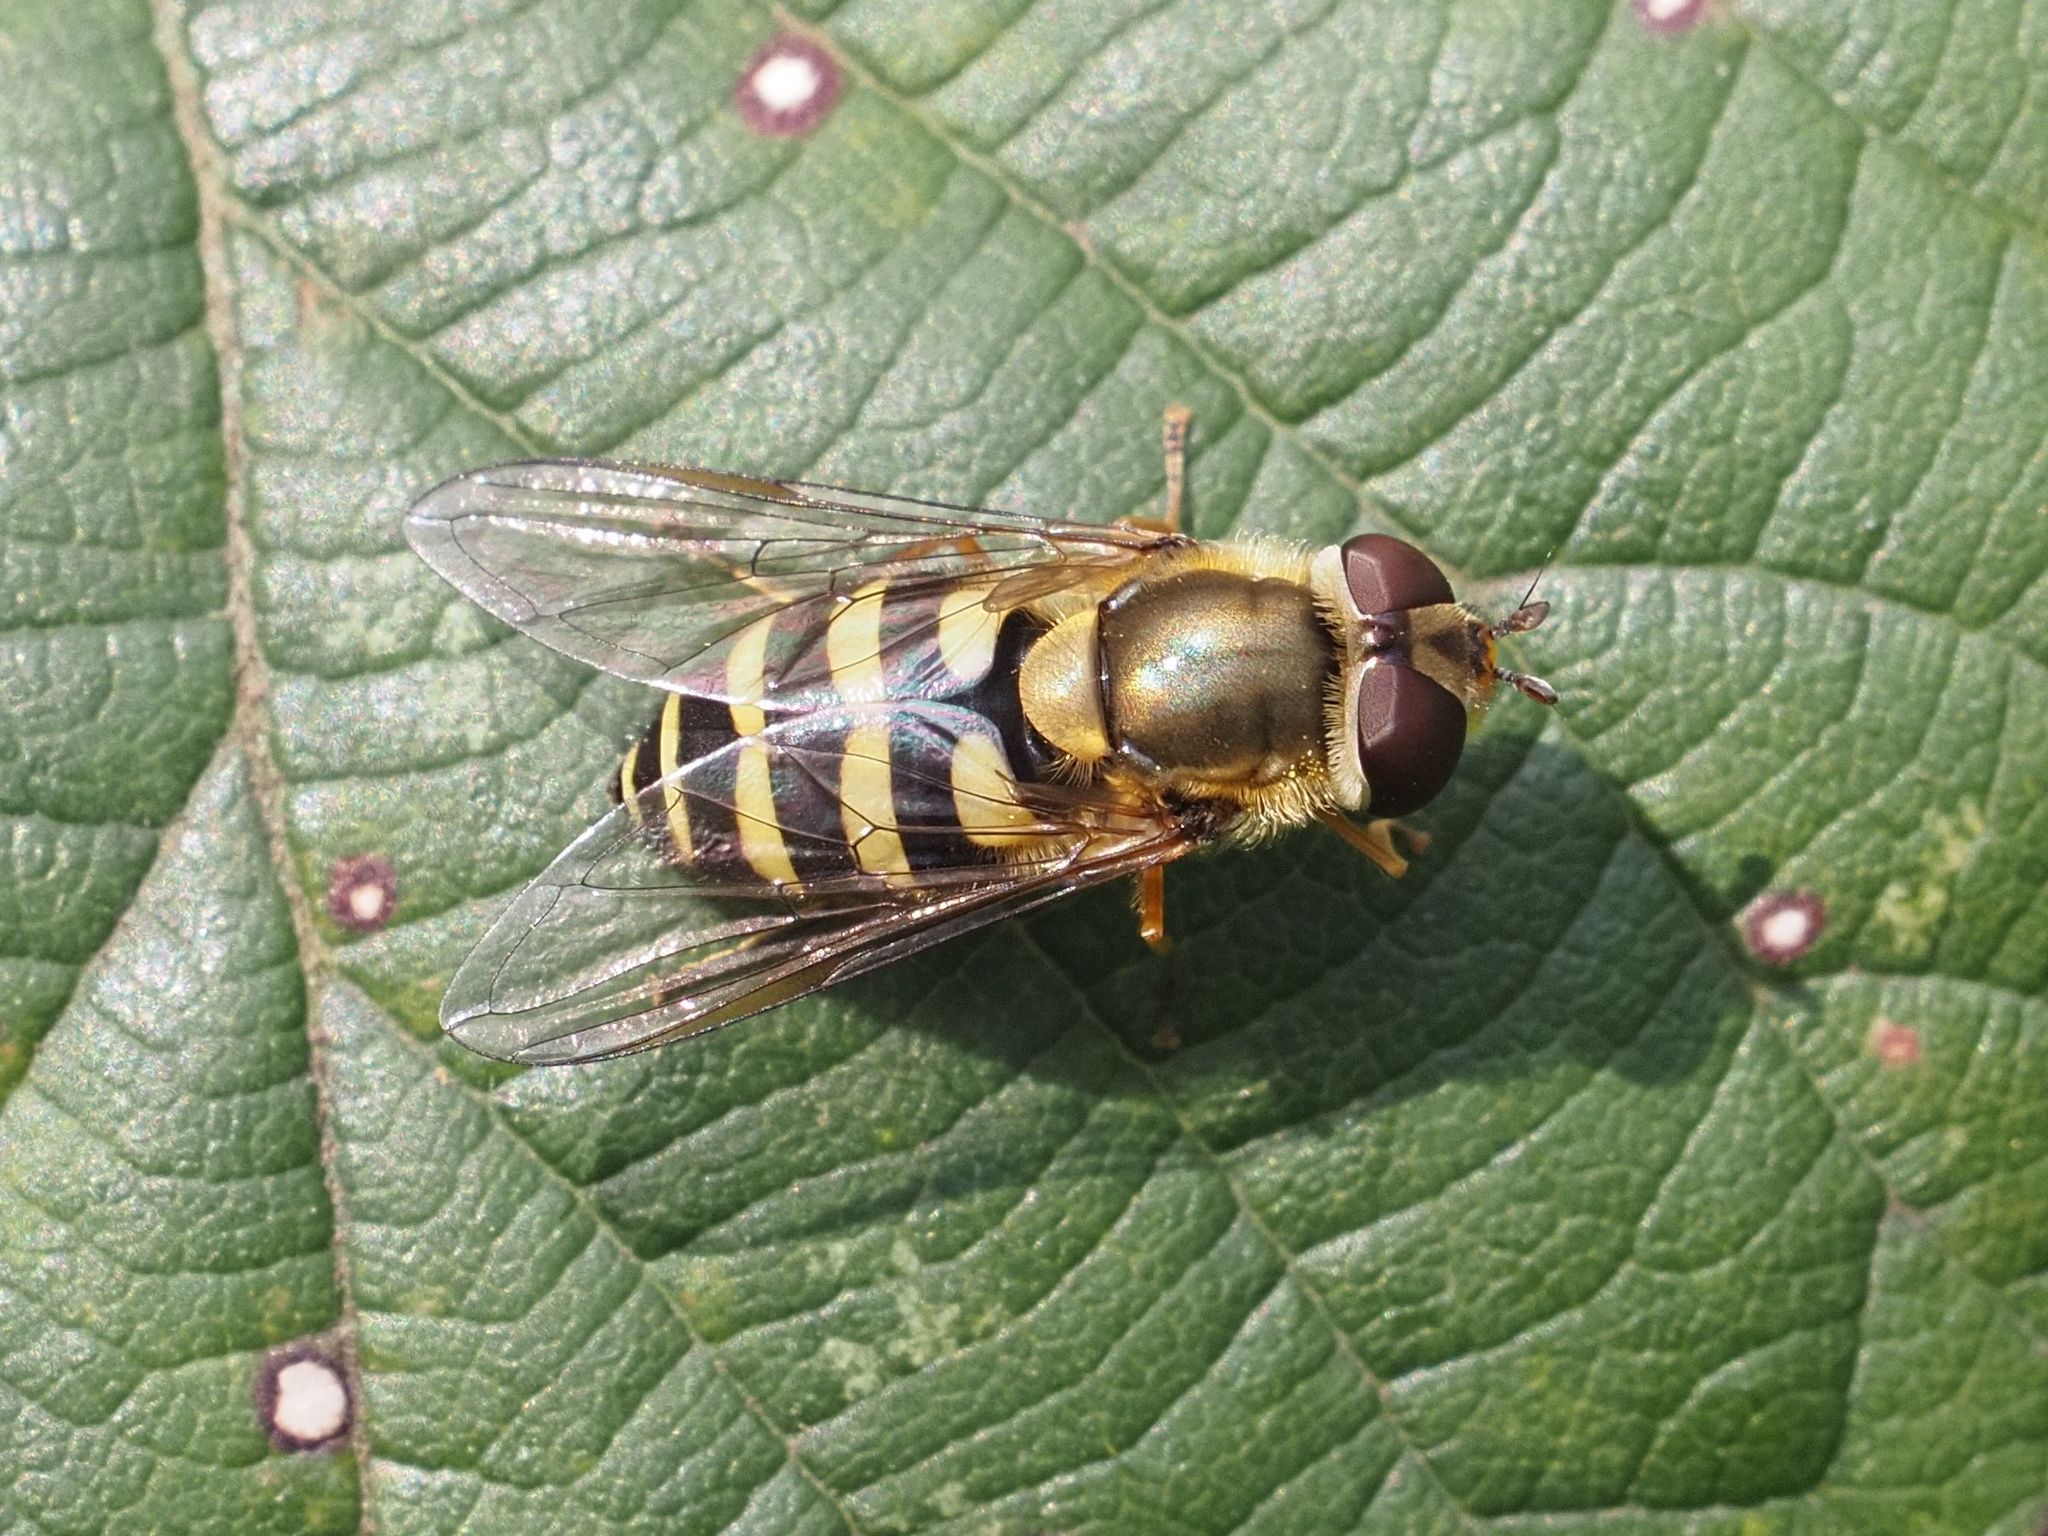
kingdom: Animalia
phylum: Arthropoda
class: Insecta
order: Diptera
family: Syrphidae
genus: Syrphus
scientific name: Syrphus
